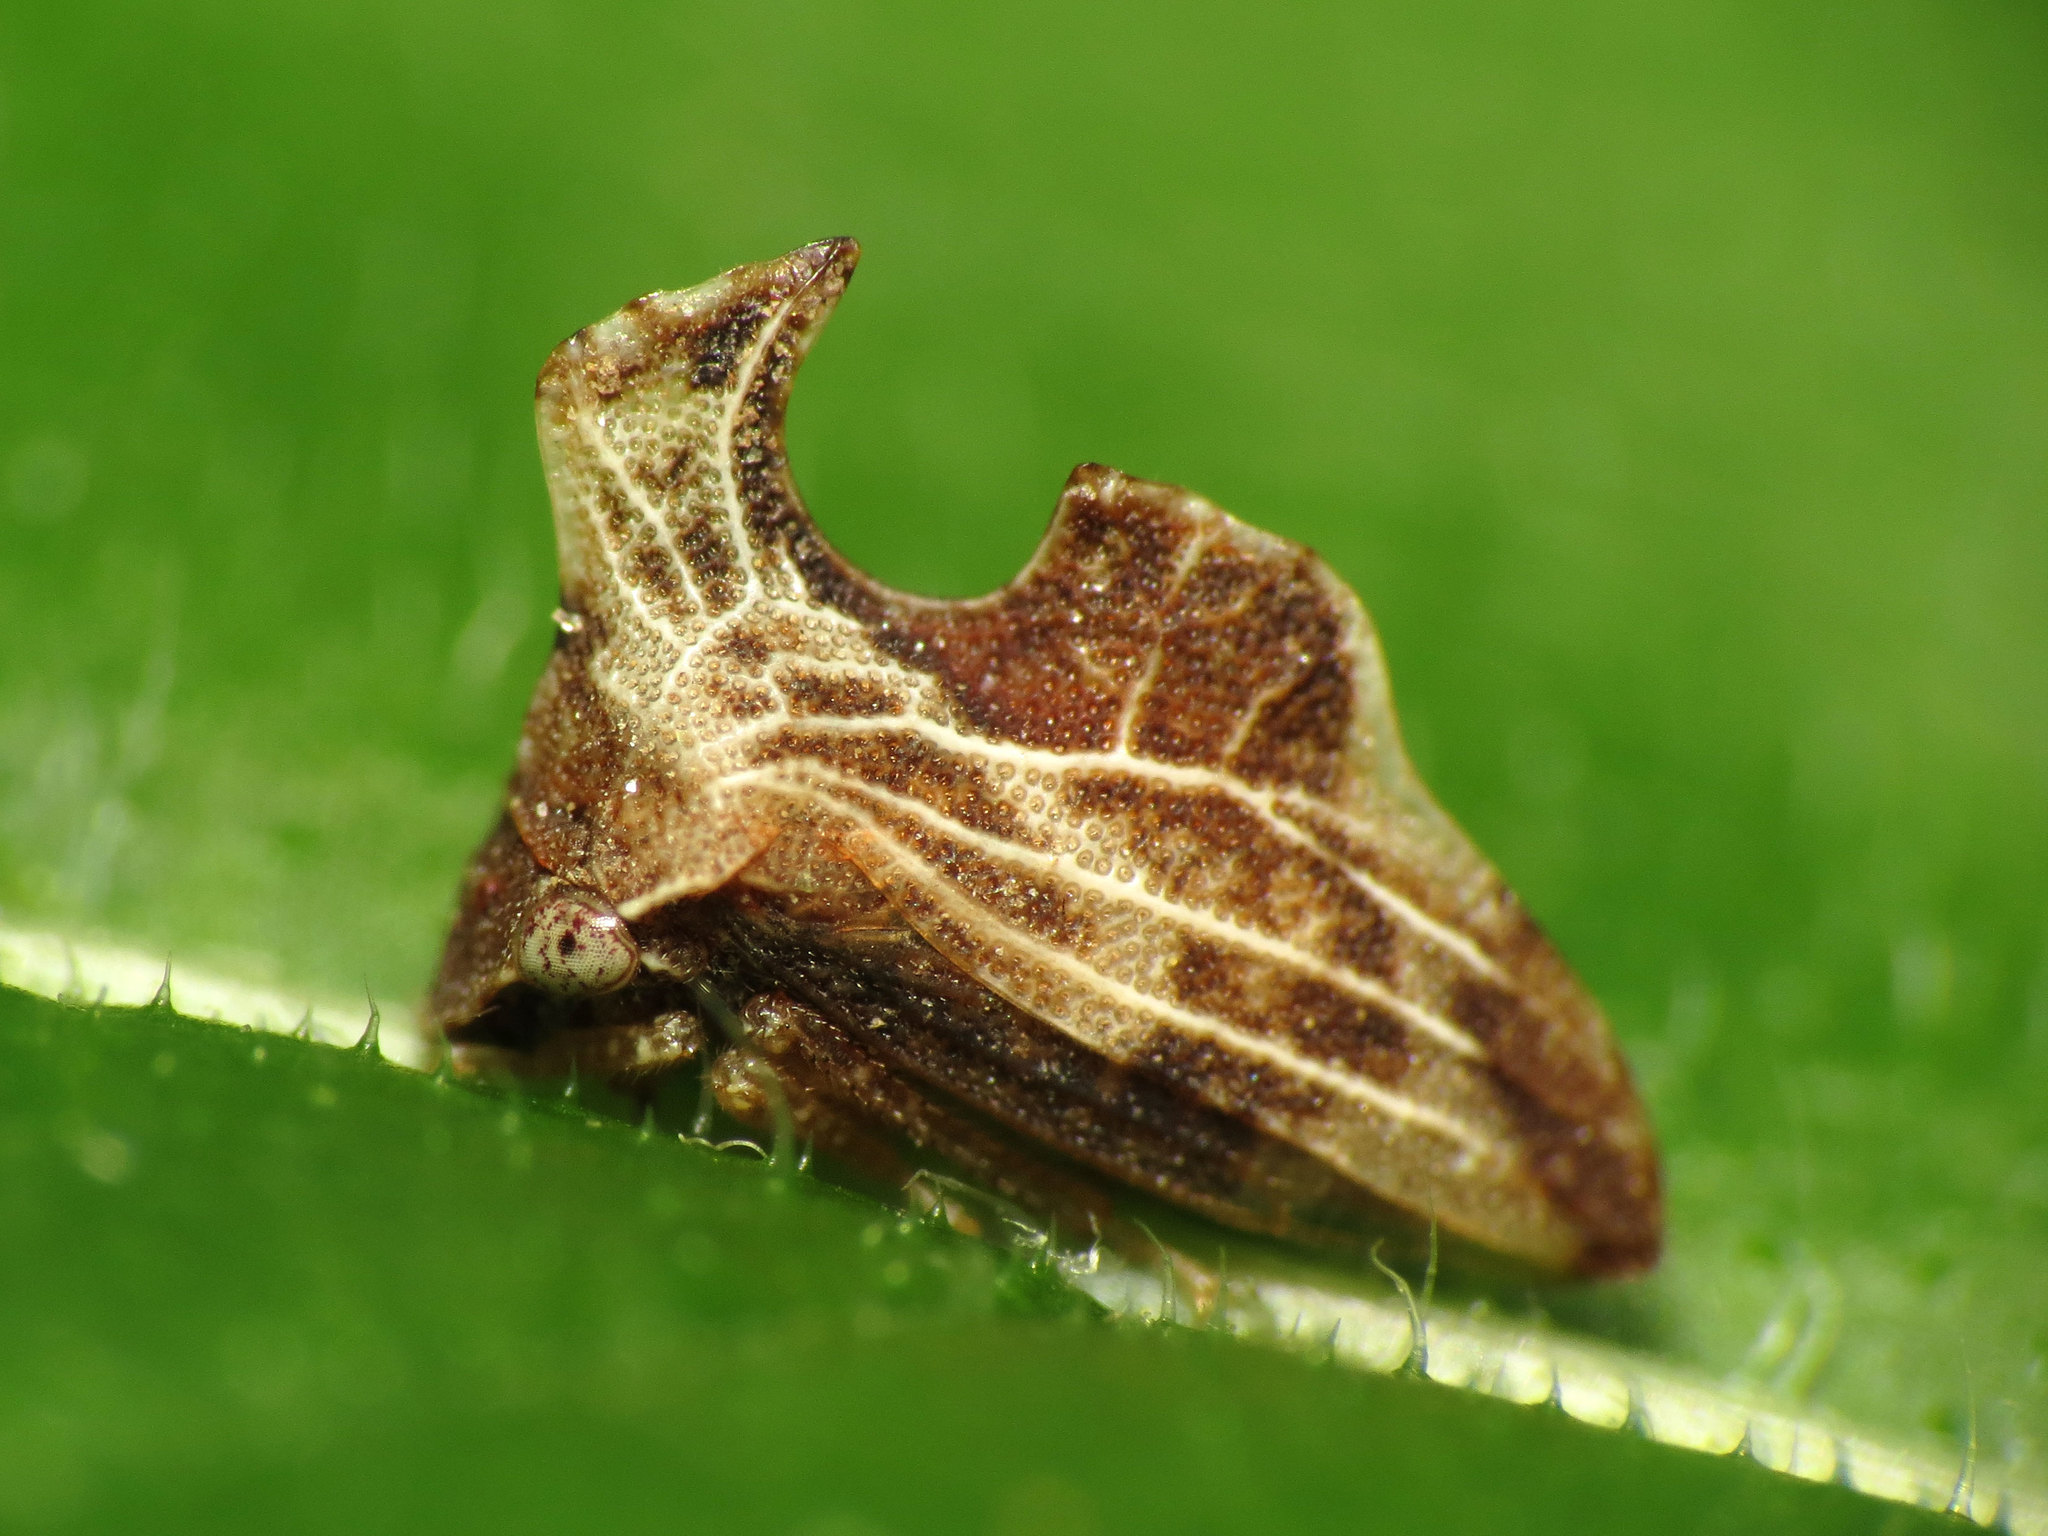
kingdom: Animalia
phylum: Arthropoda
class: Insecta
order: Hemiptera
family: Membracidae
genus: Entylia
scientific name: Entylia carinata
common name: Keeled treehopper
